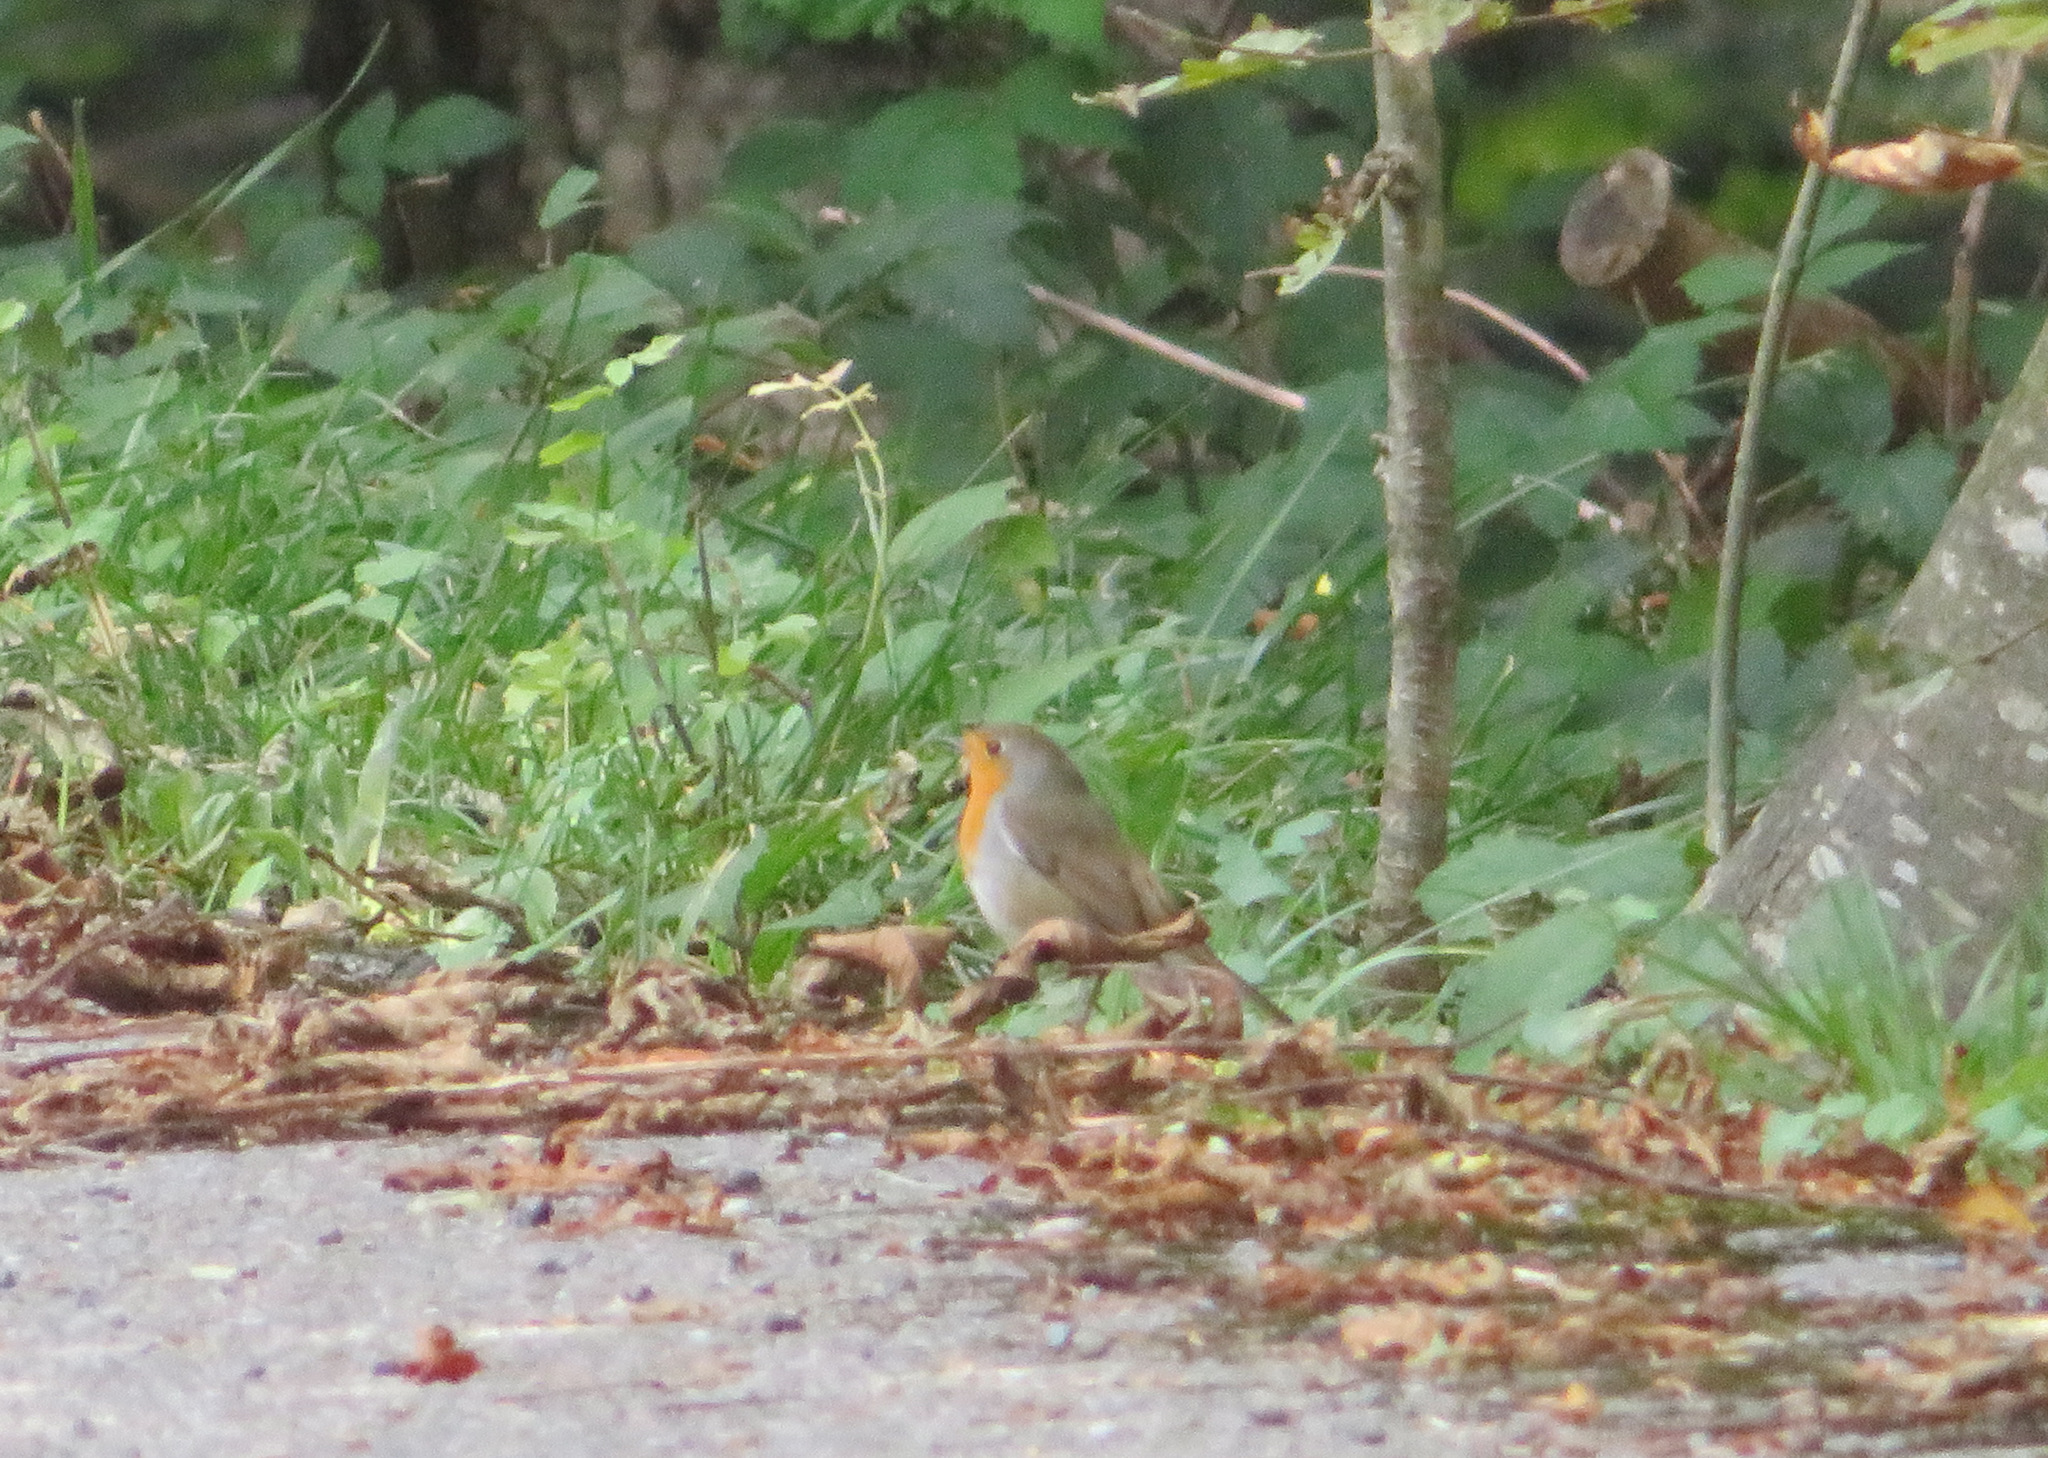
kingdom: Animalia
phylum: Chordata
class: Aves
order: Passeriformes
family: Muscicapidae
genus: Erithacus
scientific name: Erithacus rubecula
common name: European robin
